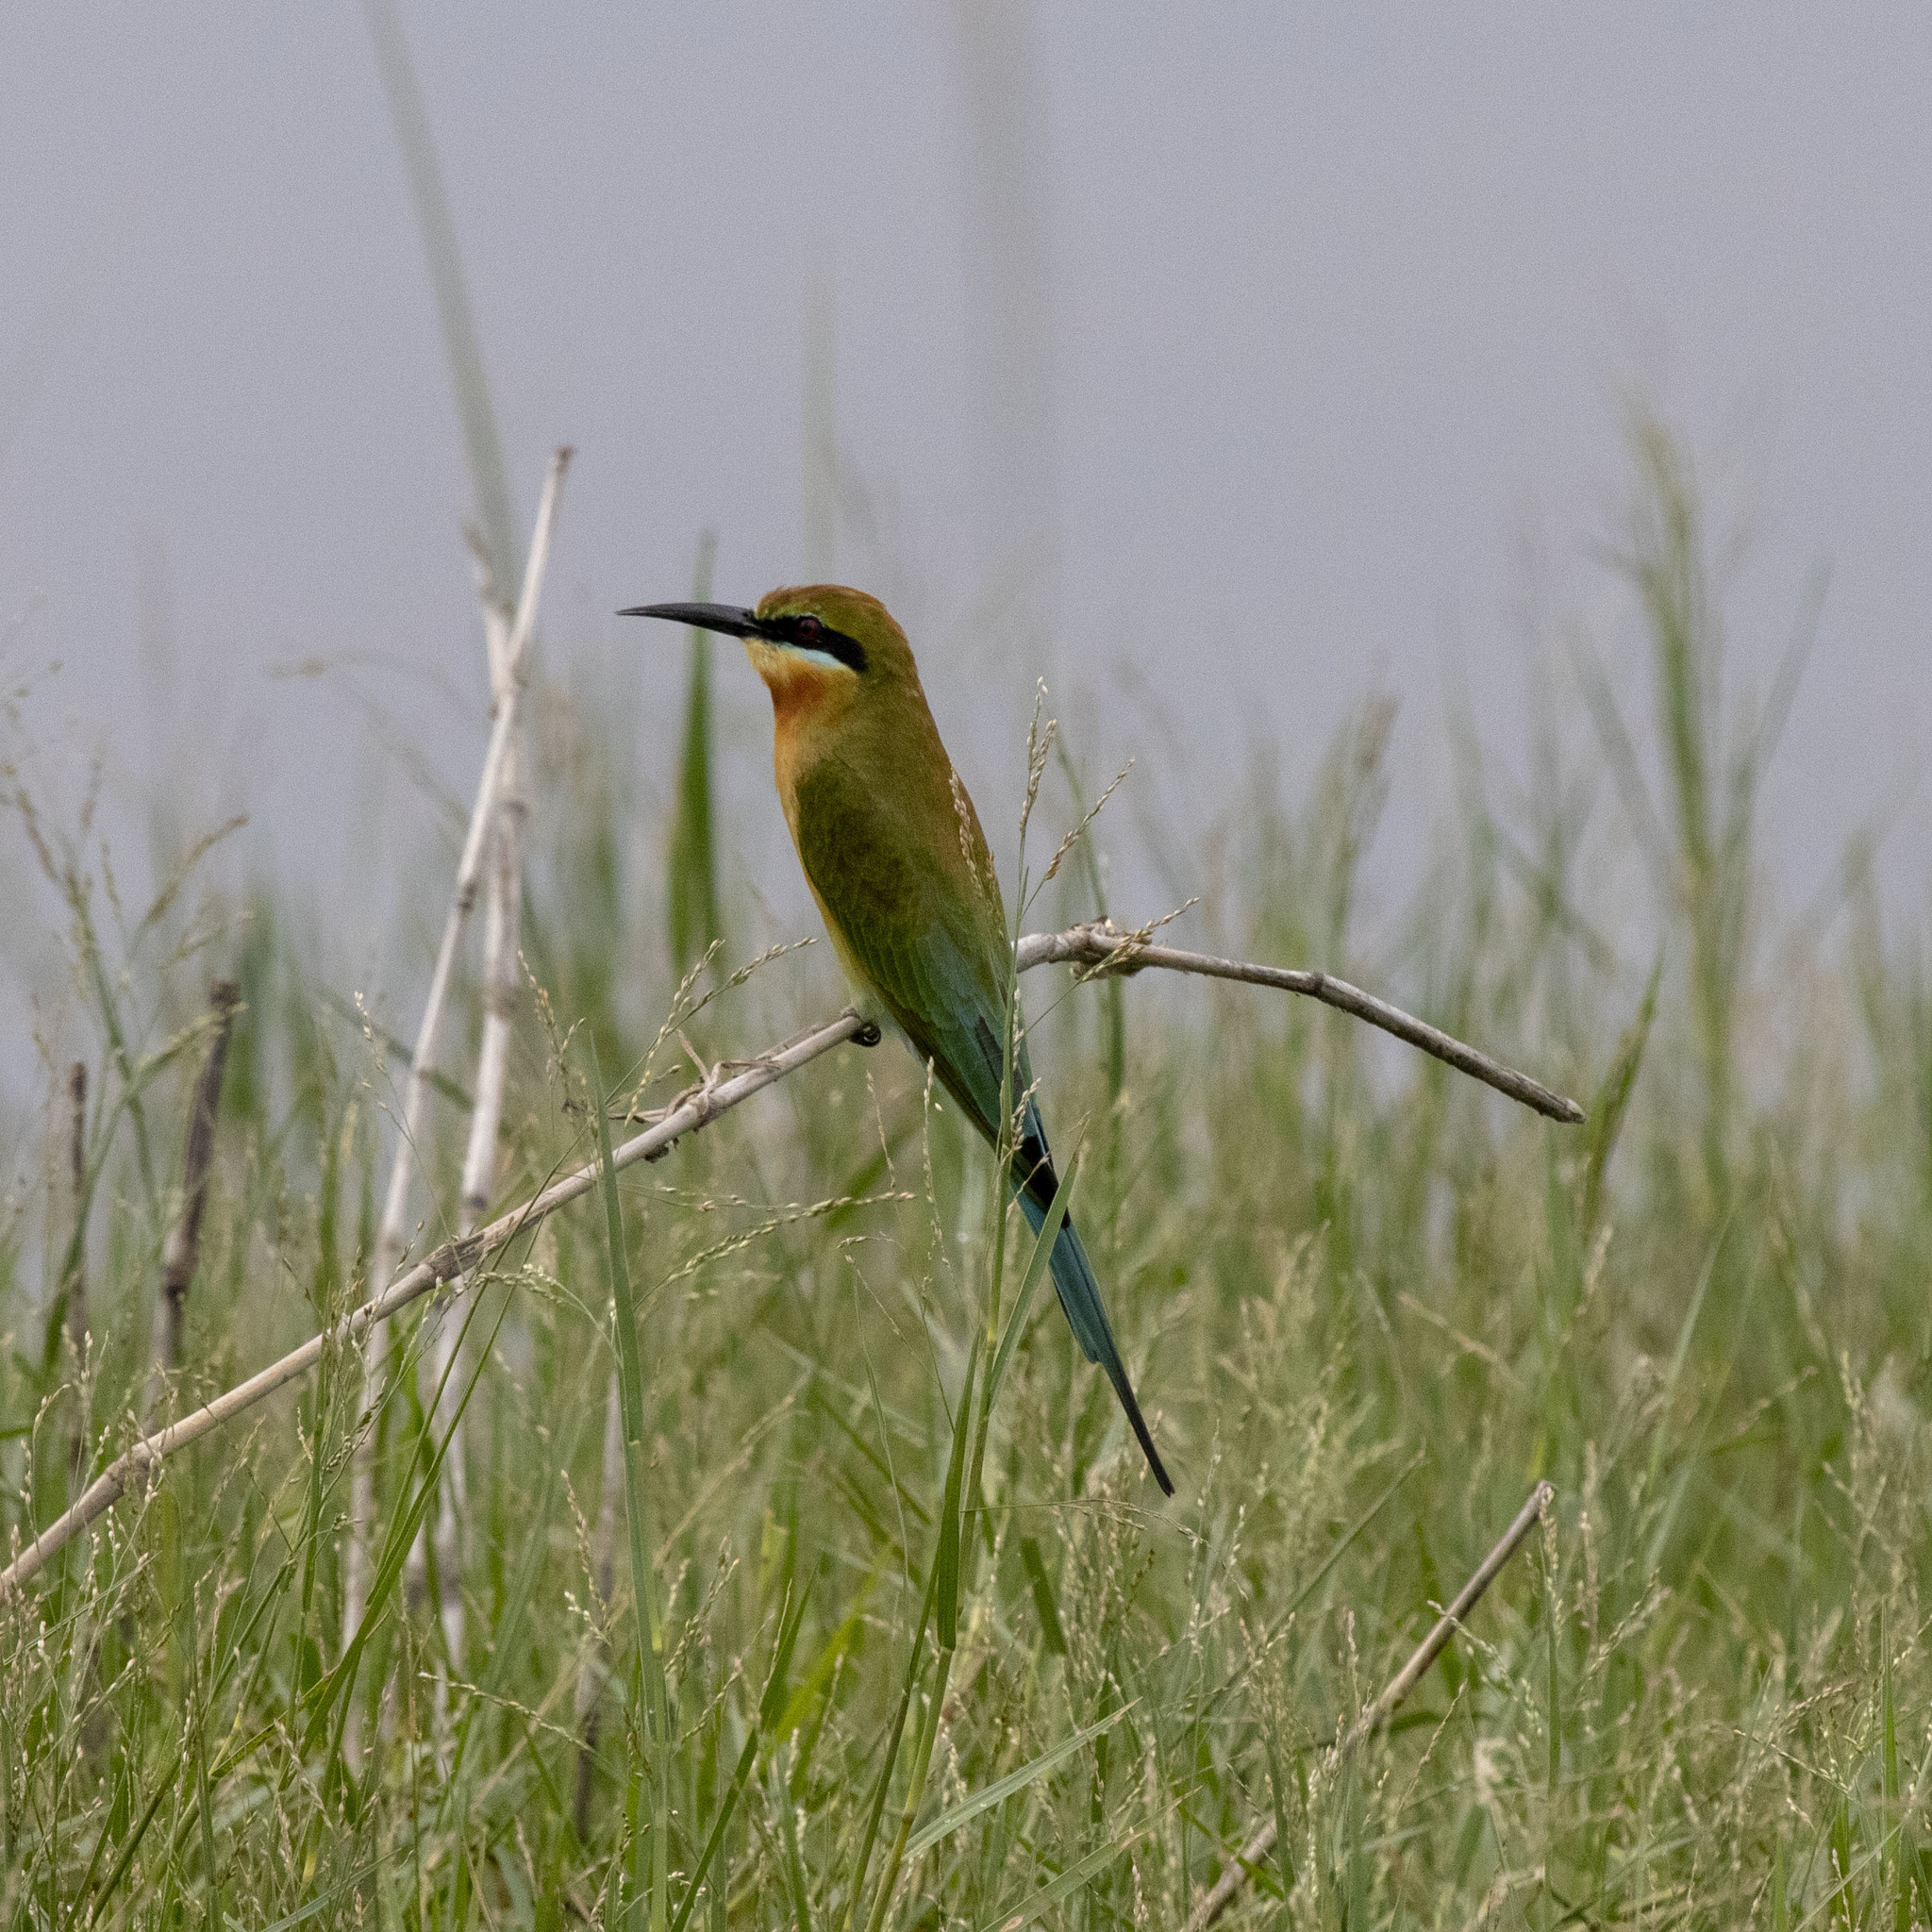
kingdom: Animalia
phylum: Chordata
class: Aves
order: Coraciiformes
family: Meropidae
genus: Merops
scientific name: Merops philippinus
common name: Blue-tailed bee-eater
